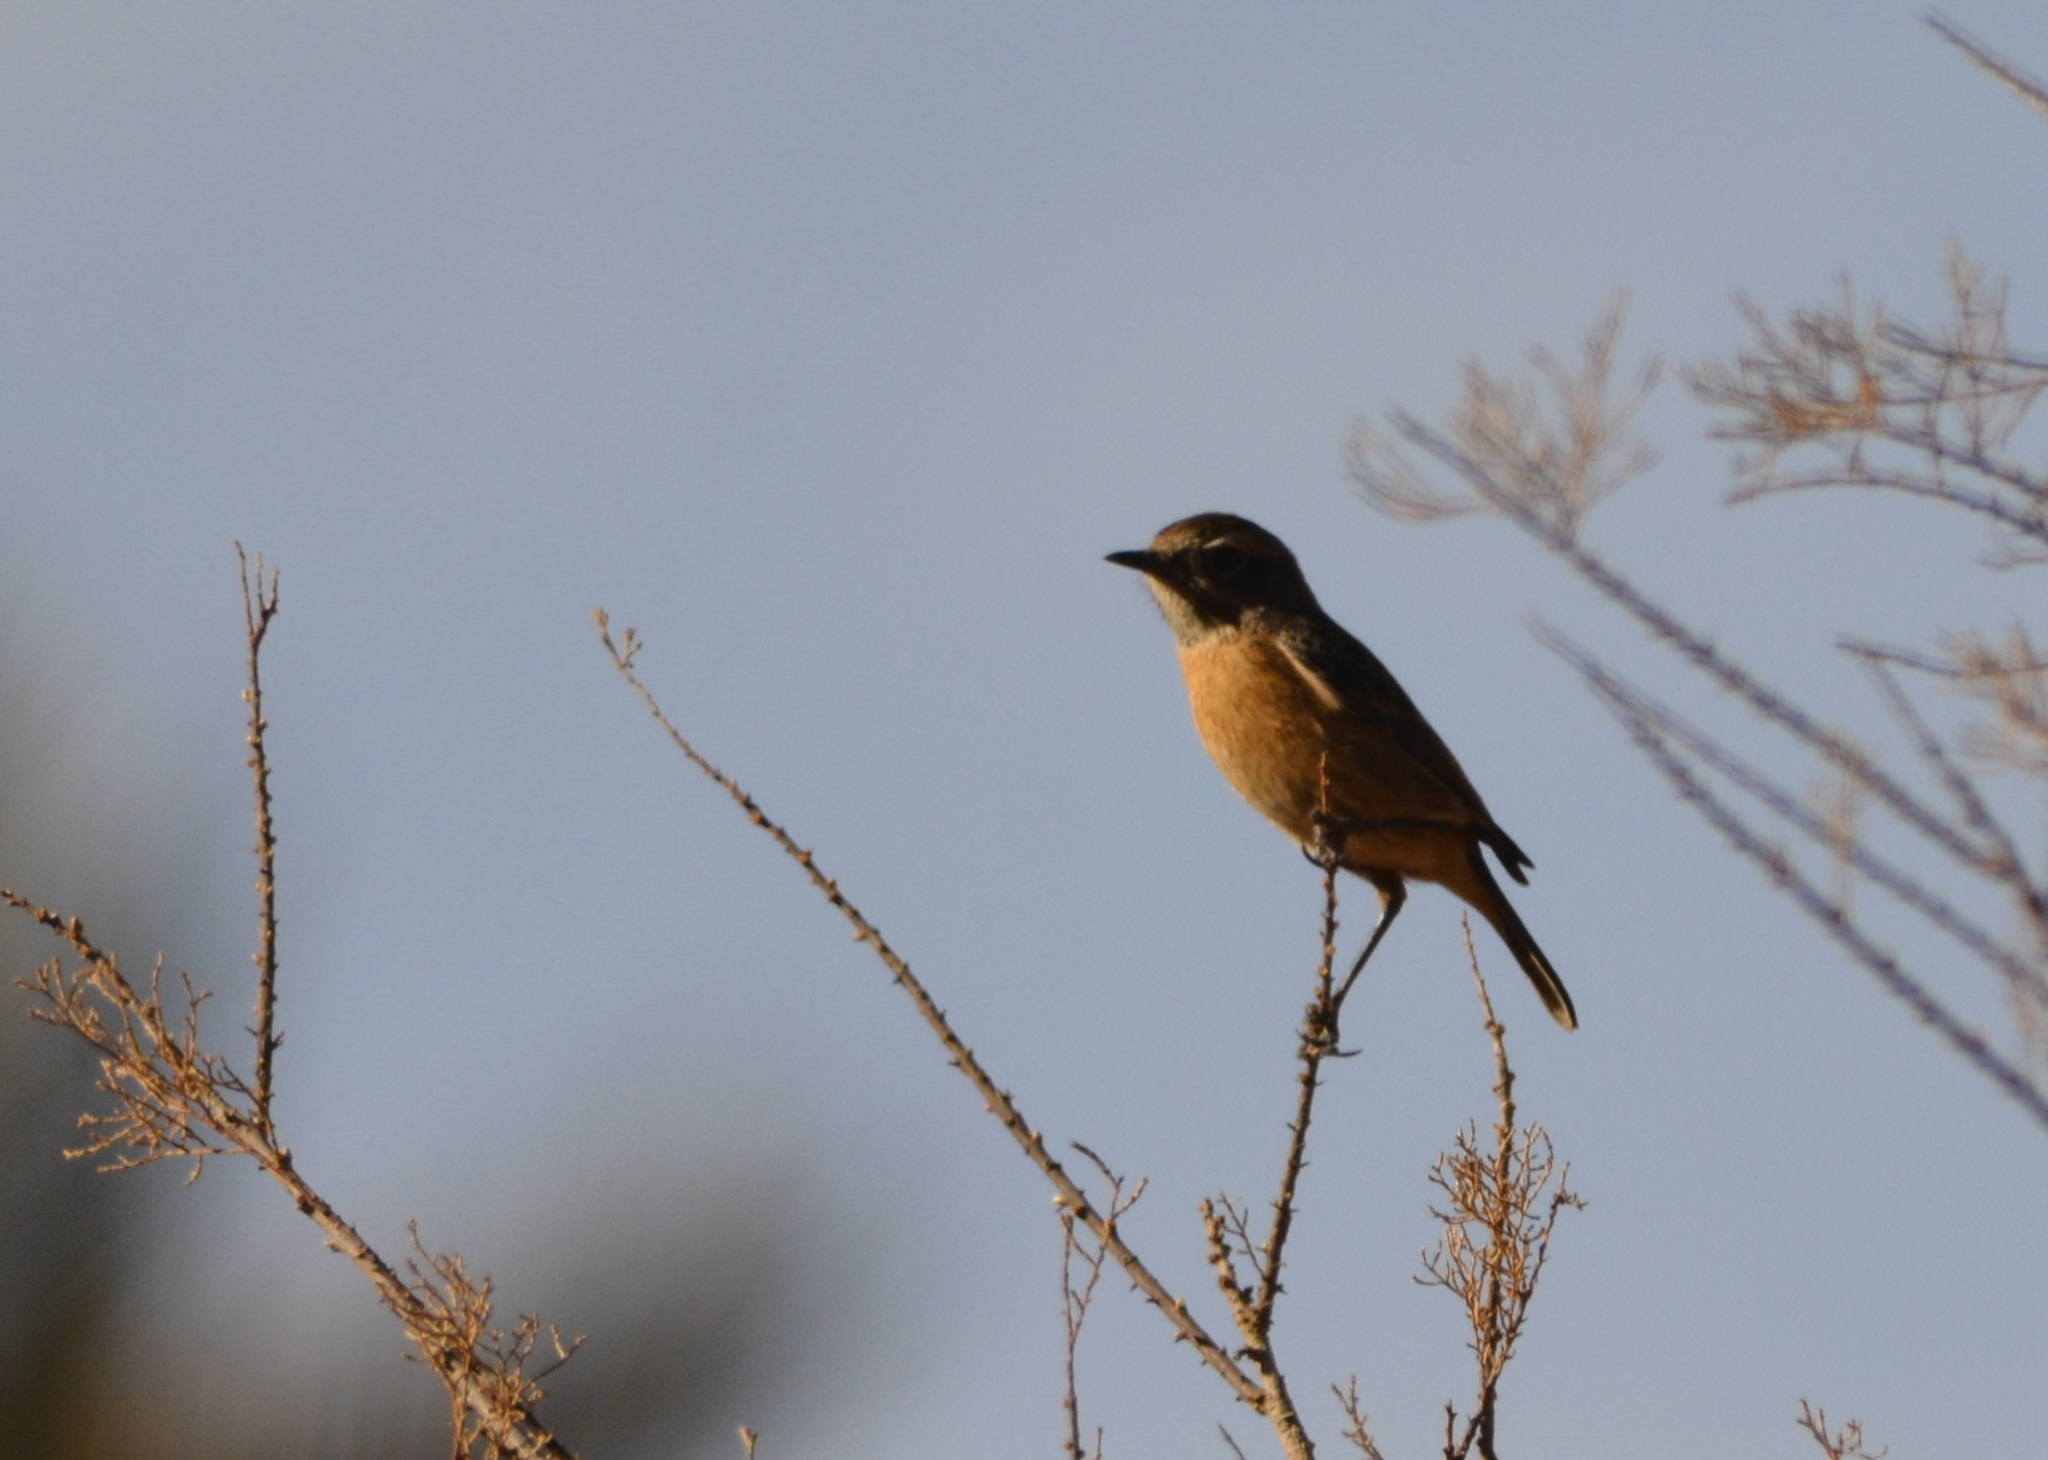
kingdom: Animalia
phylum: Chordata
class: Aves
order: Passeriformes
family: Muscicapidae
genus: Saxicola
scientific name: Saxicola rubicola
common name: European stonechat
